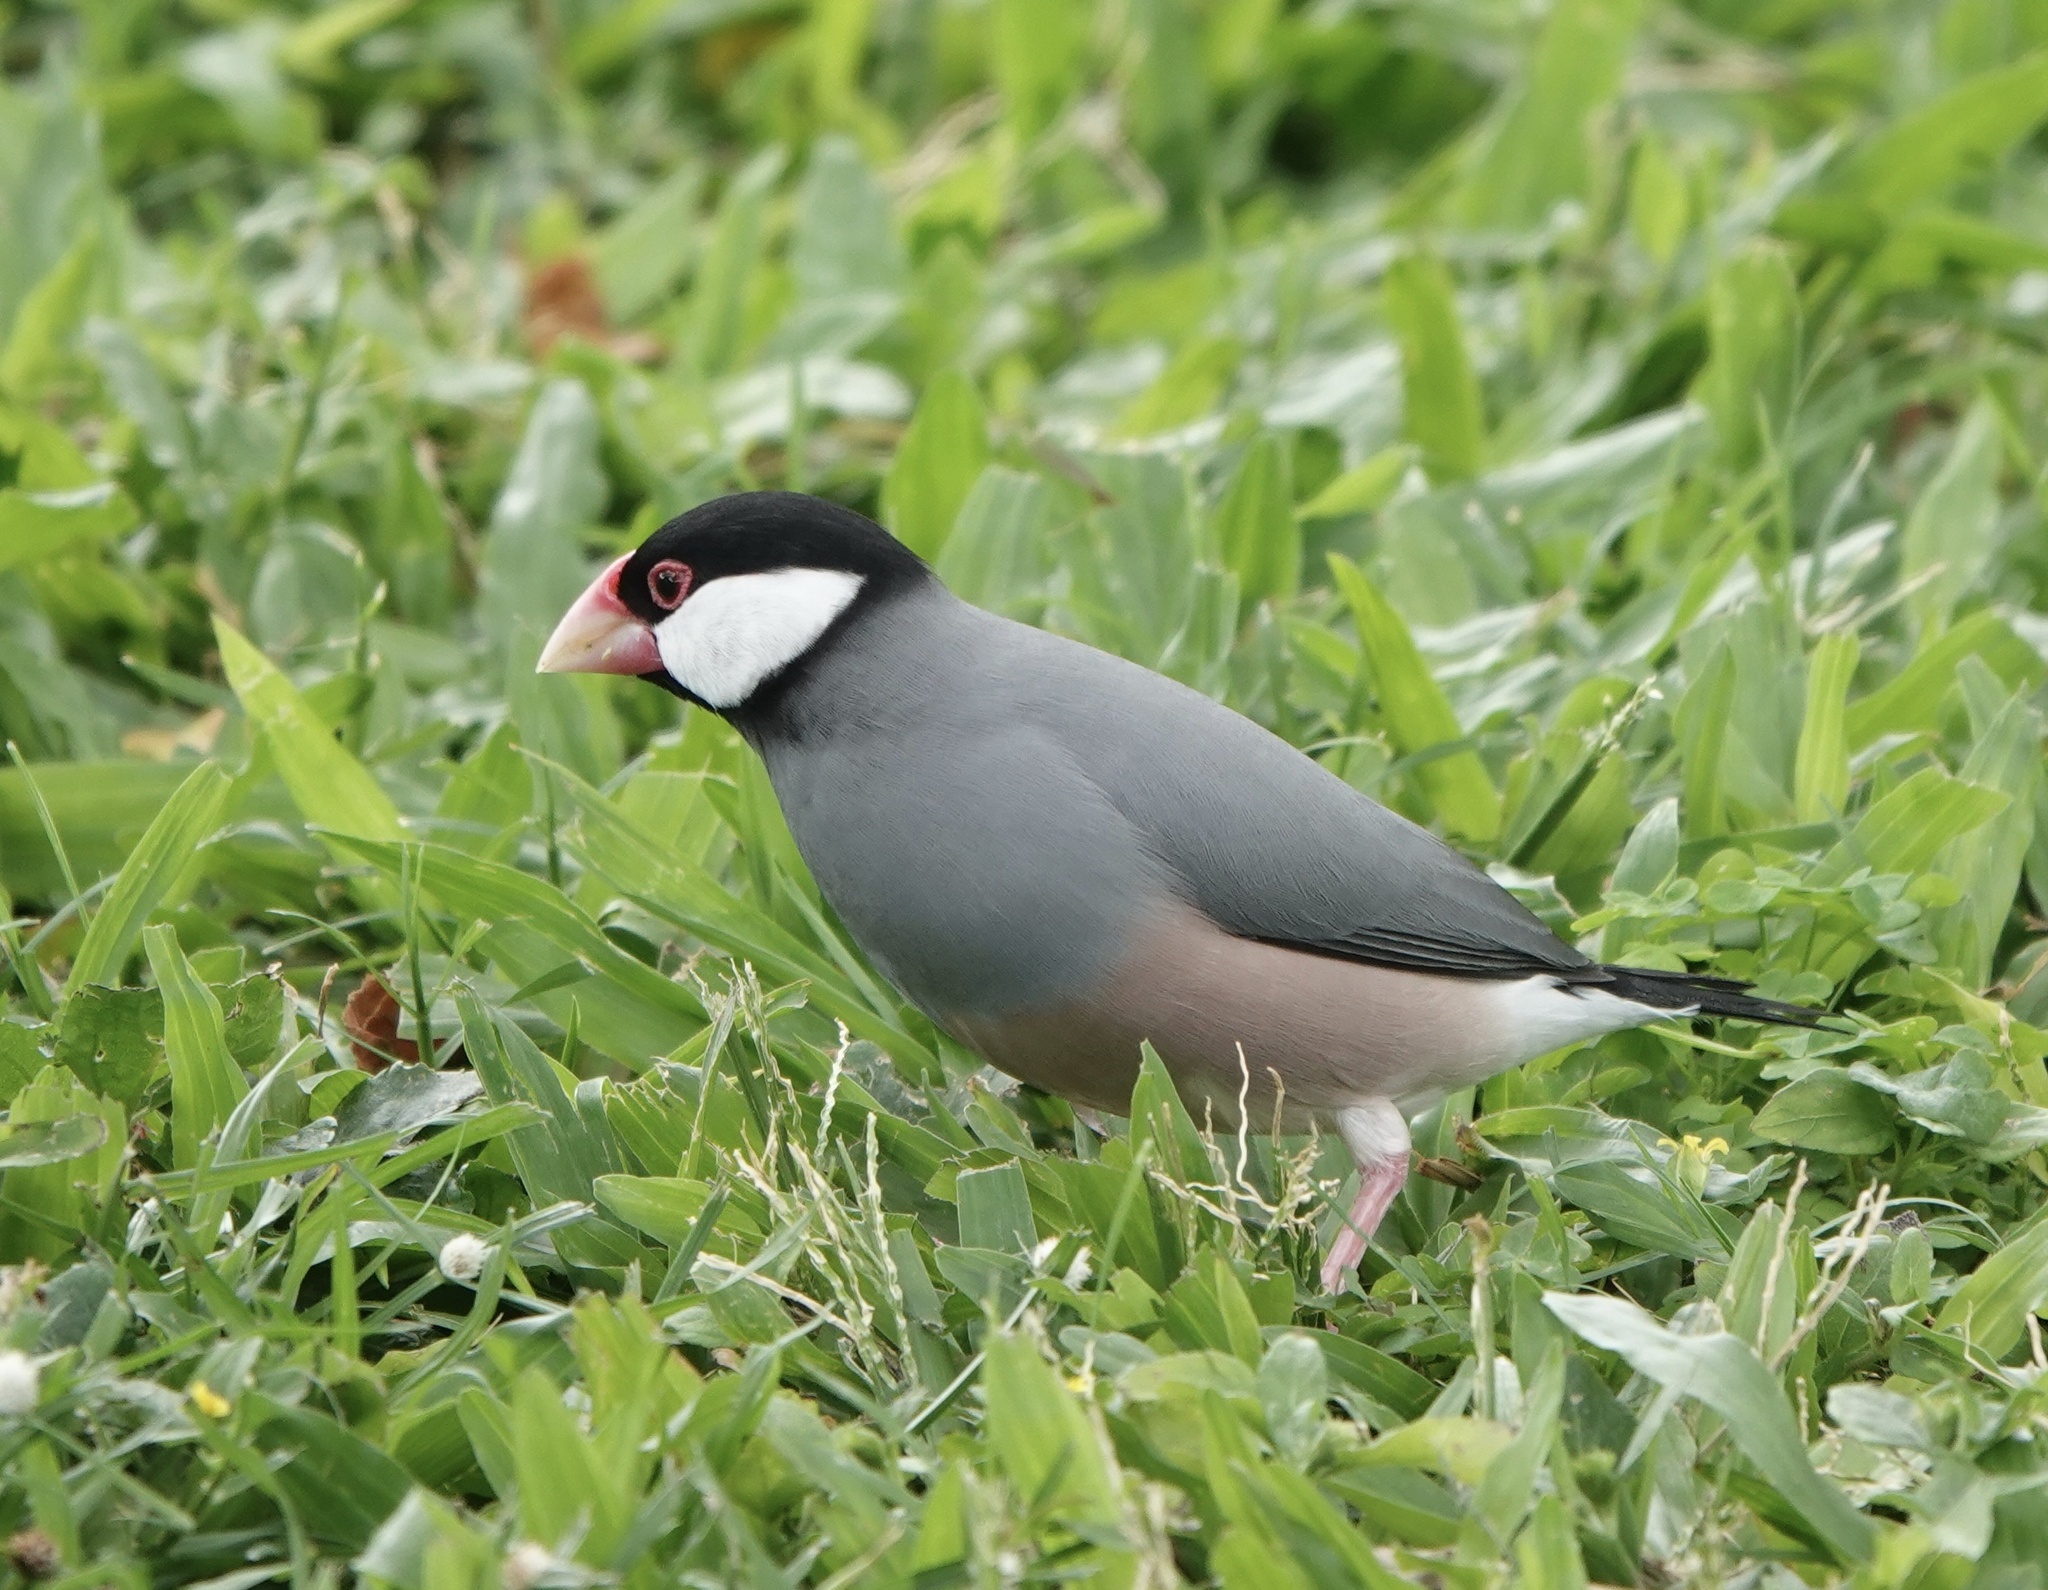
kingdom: Animalia
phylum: Chordata
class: Aves
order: Passeriformes
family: Estrildidae
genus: Lonchura
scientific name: Lonchura oryzivora
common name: Java sparrow
